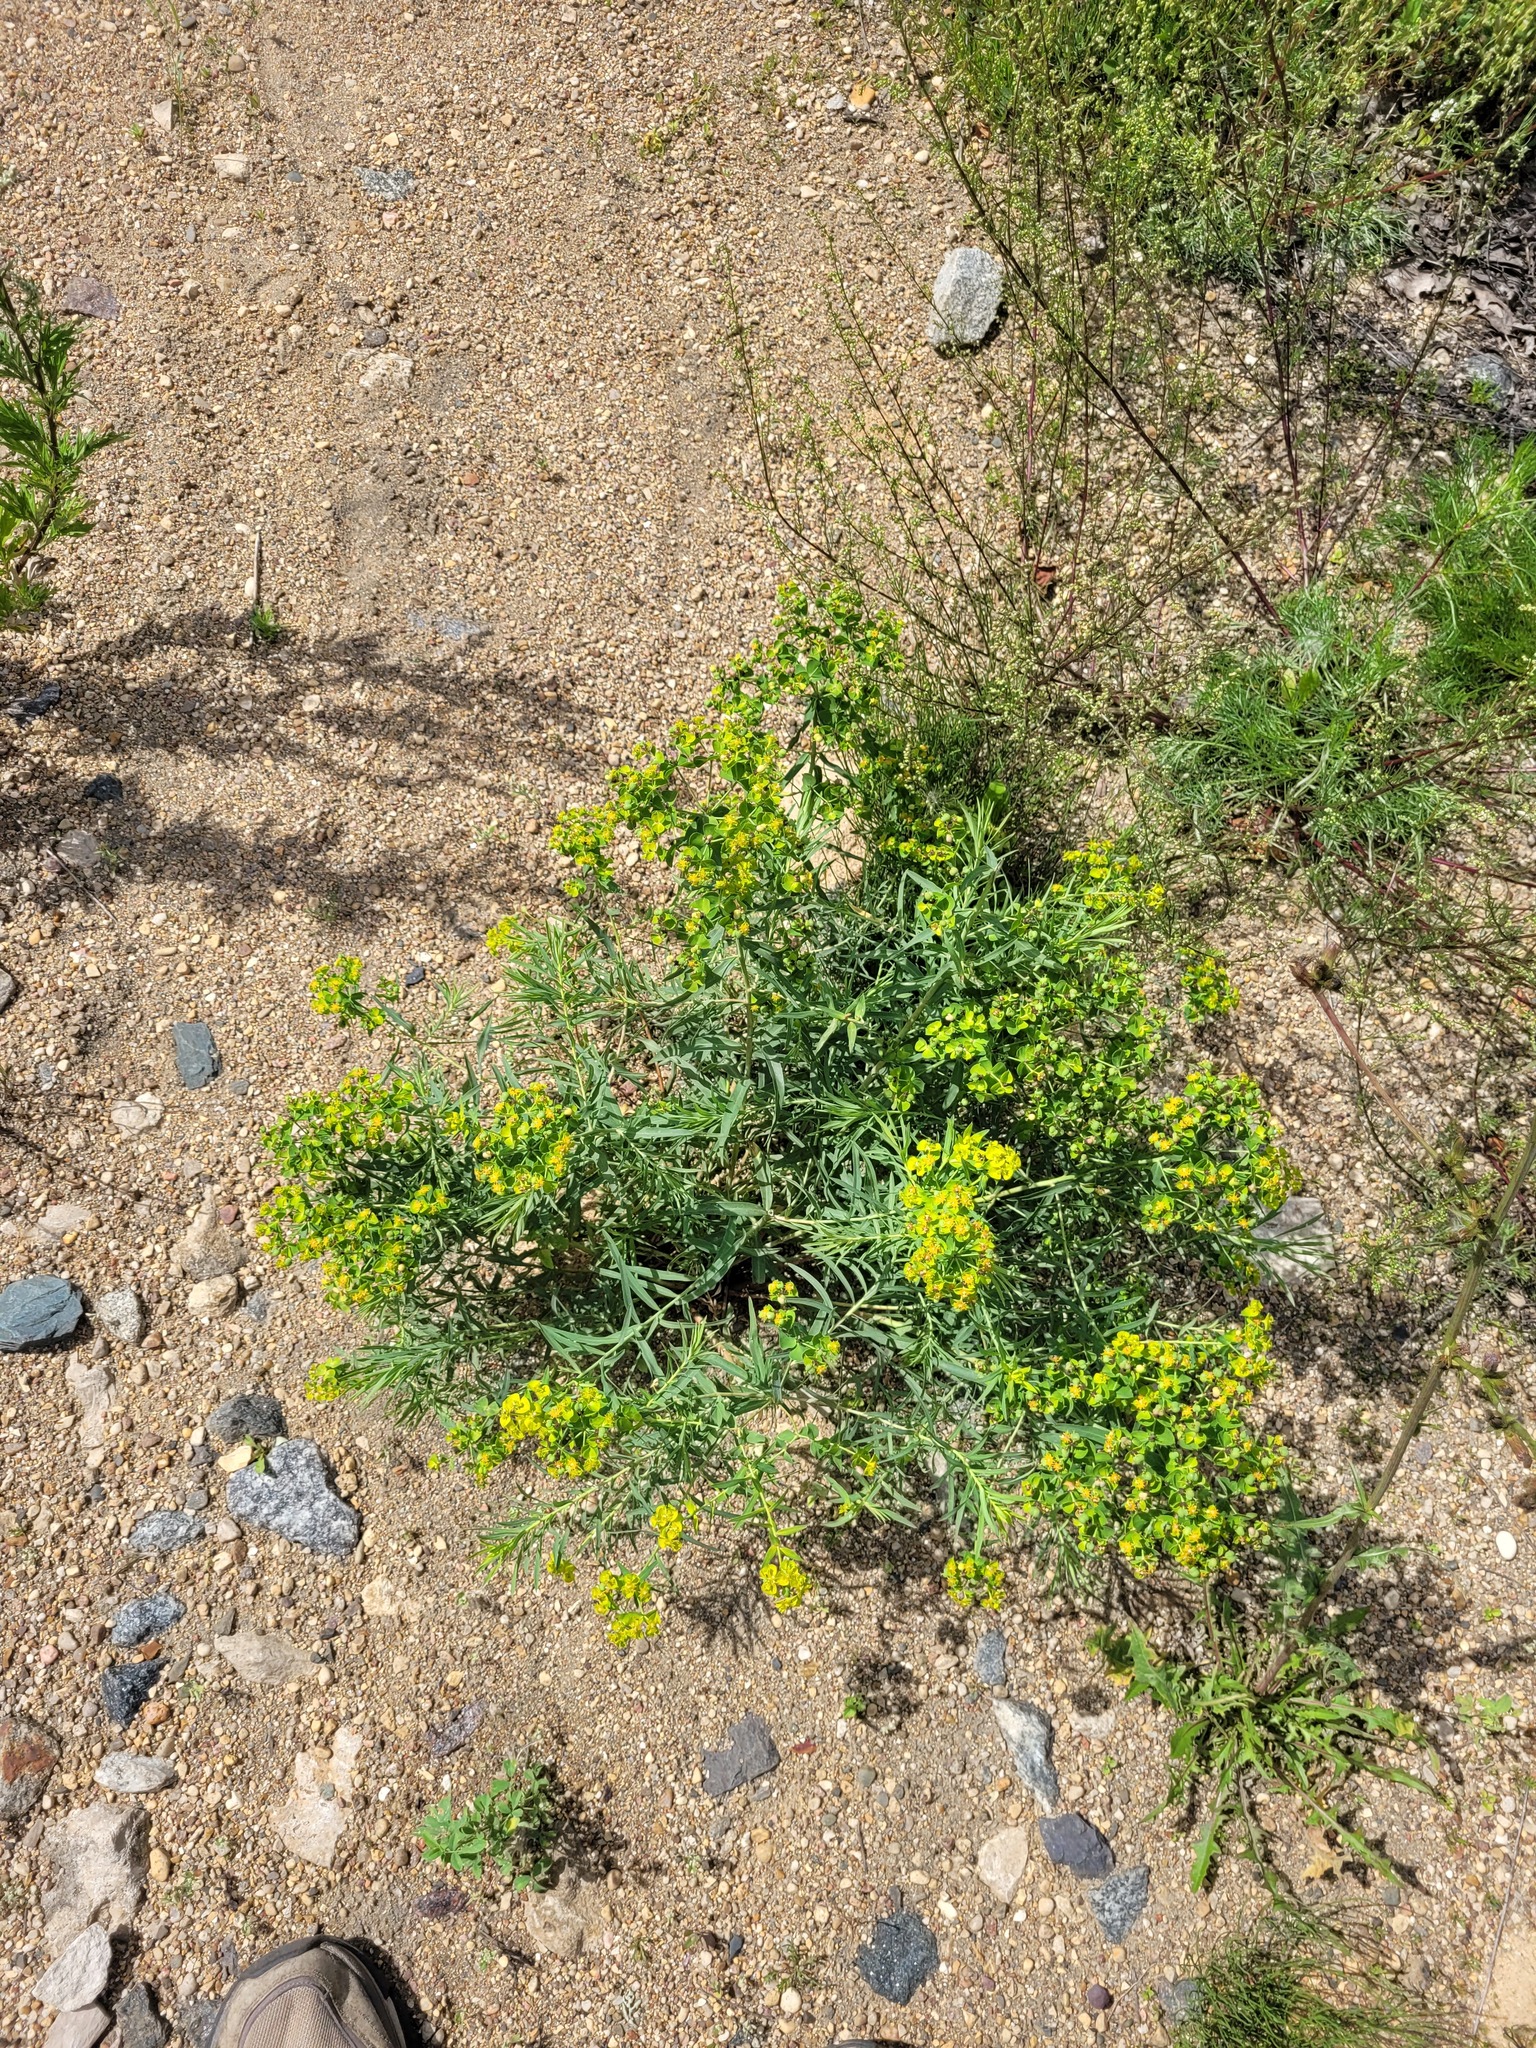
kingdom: Plantae
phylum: Tracheophyta
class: Magnoliopsida
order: Malpighiales
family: Euphorbiaceae
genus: Euphorbia
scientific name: Euphorbia virgata
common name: Leafy spurge
